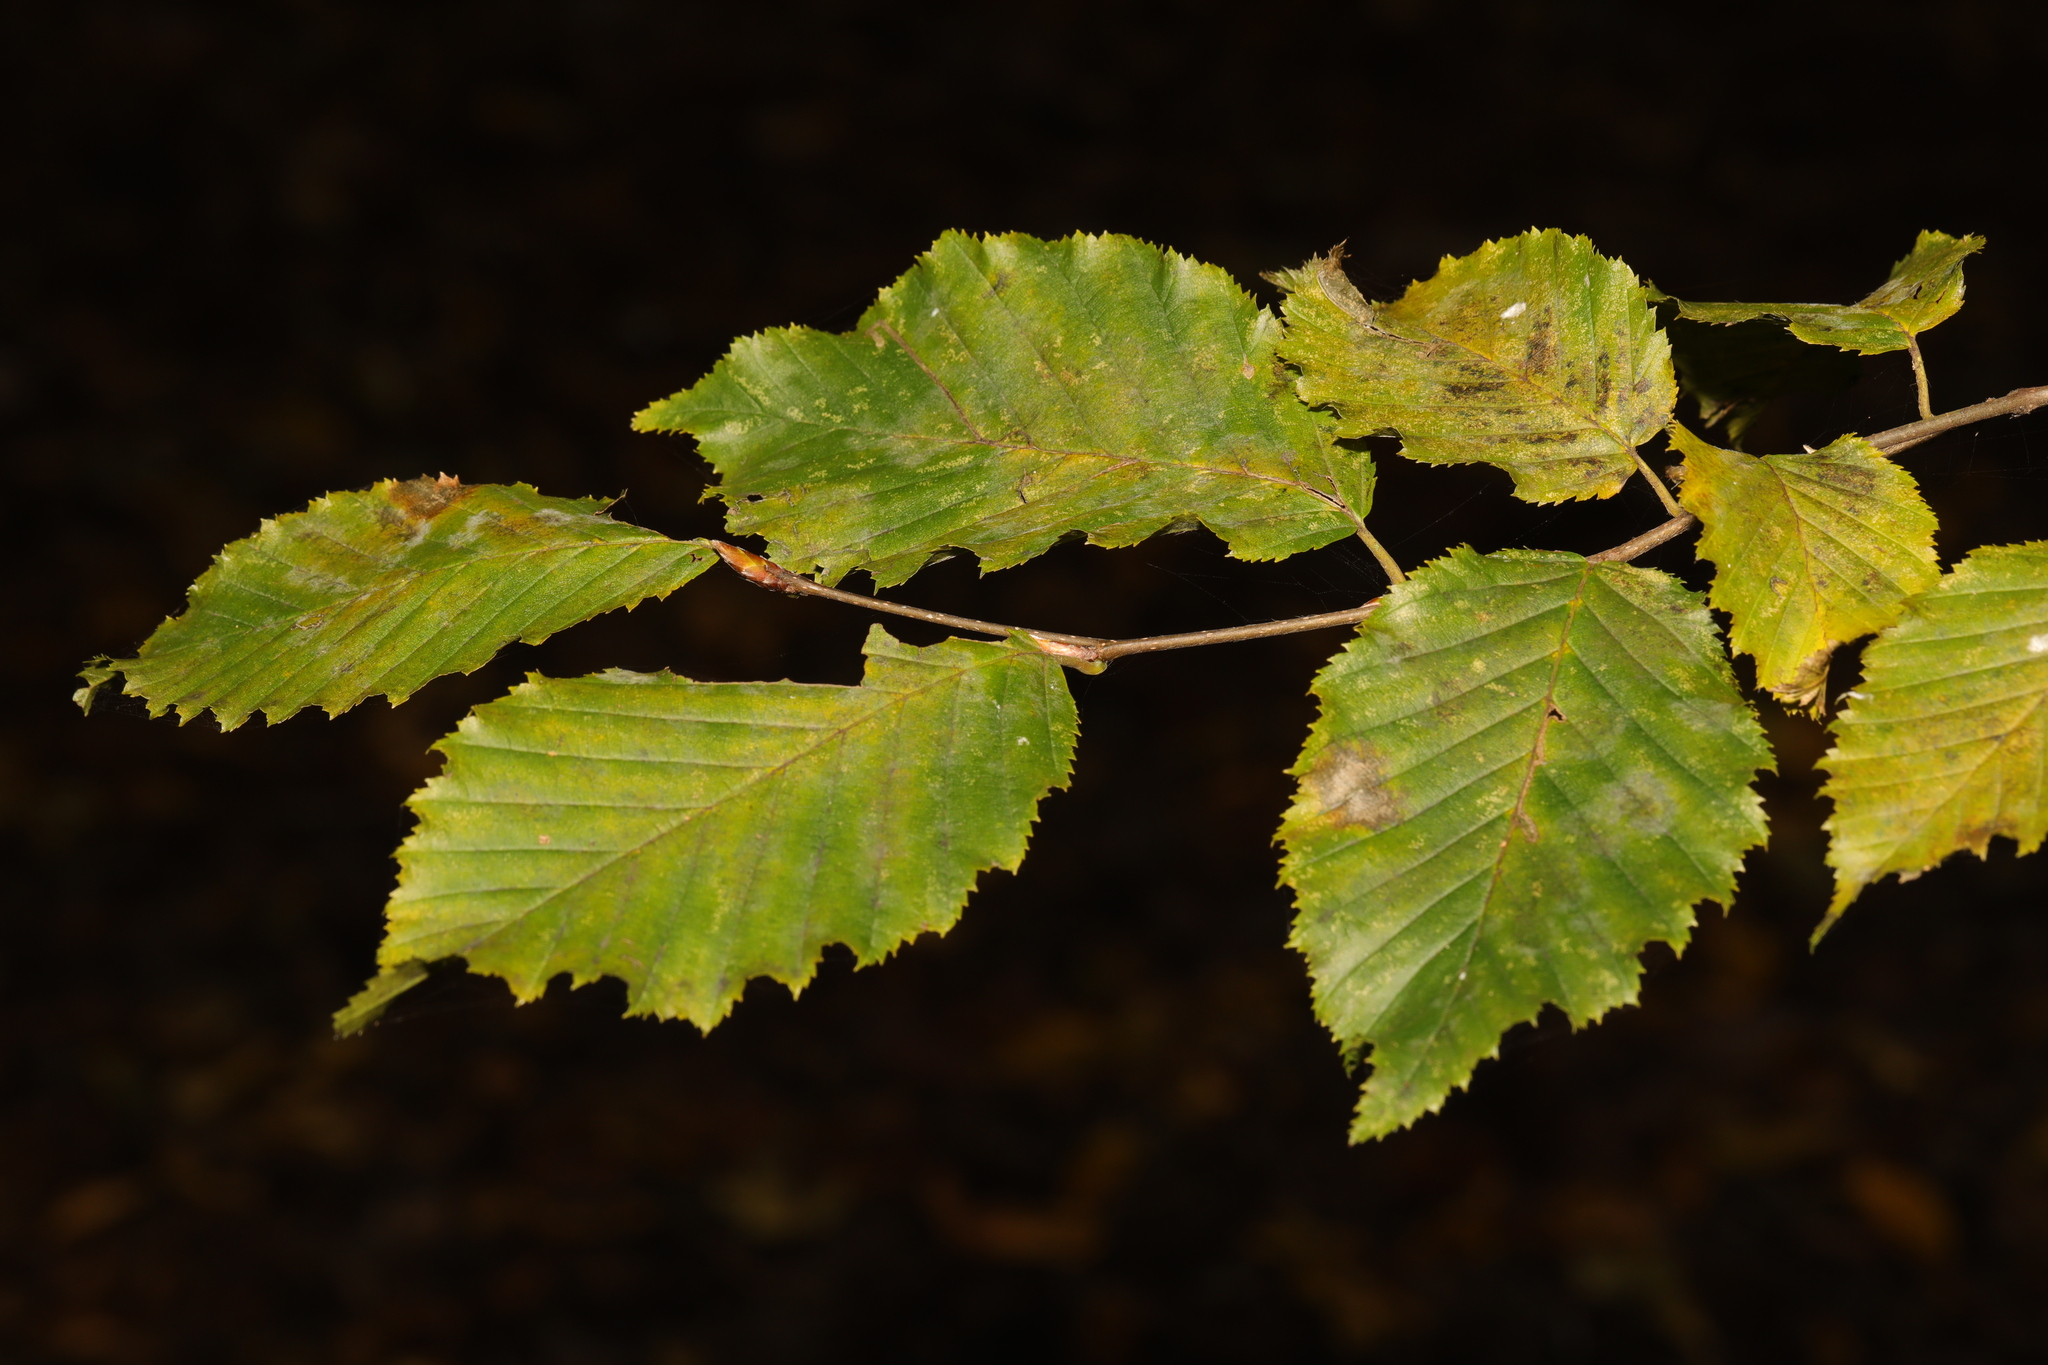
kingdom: Plantae
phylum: Tracheophyta
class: Magnoliopsida
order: Fagales
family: Betulaceae
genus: Carpinus
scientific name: Carpinus betulus
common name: Hornbeam
